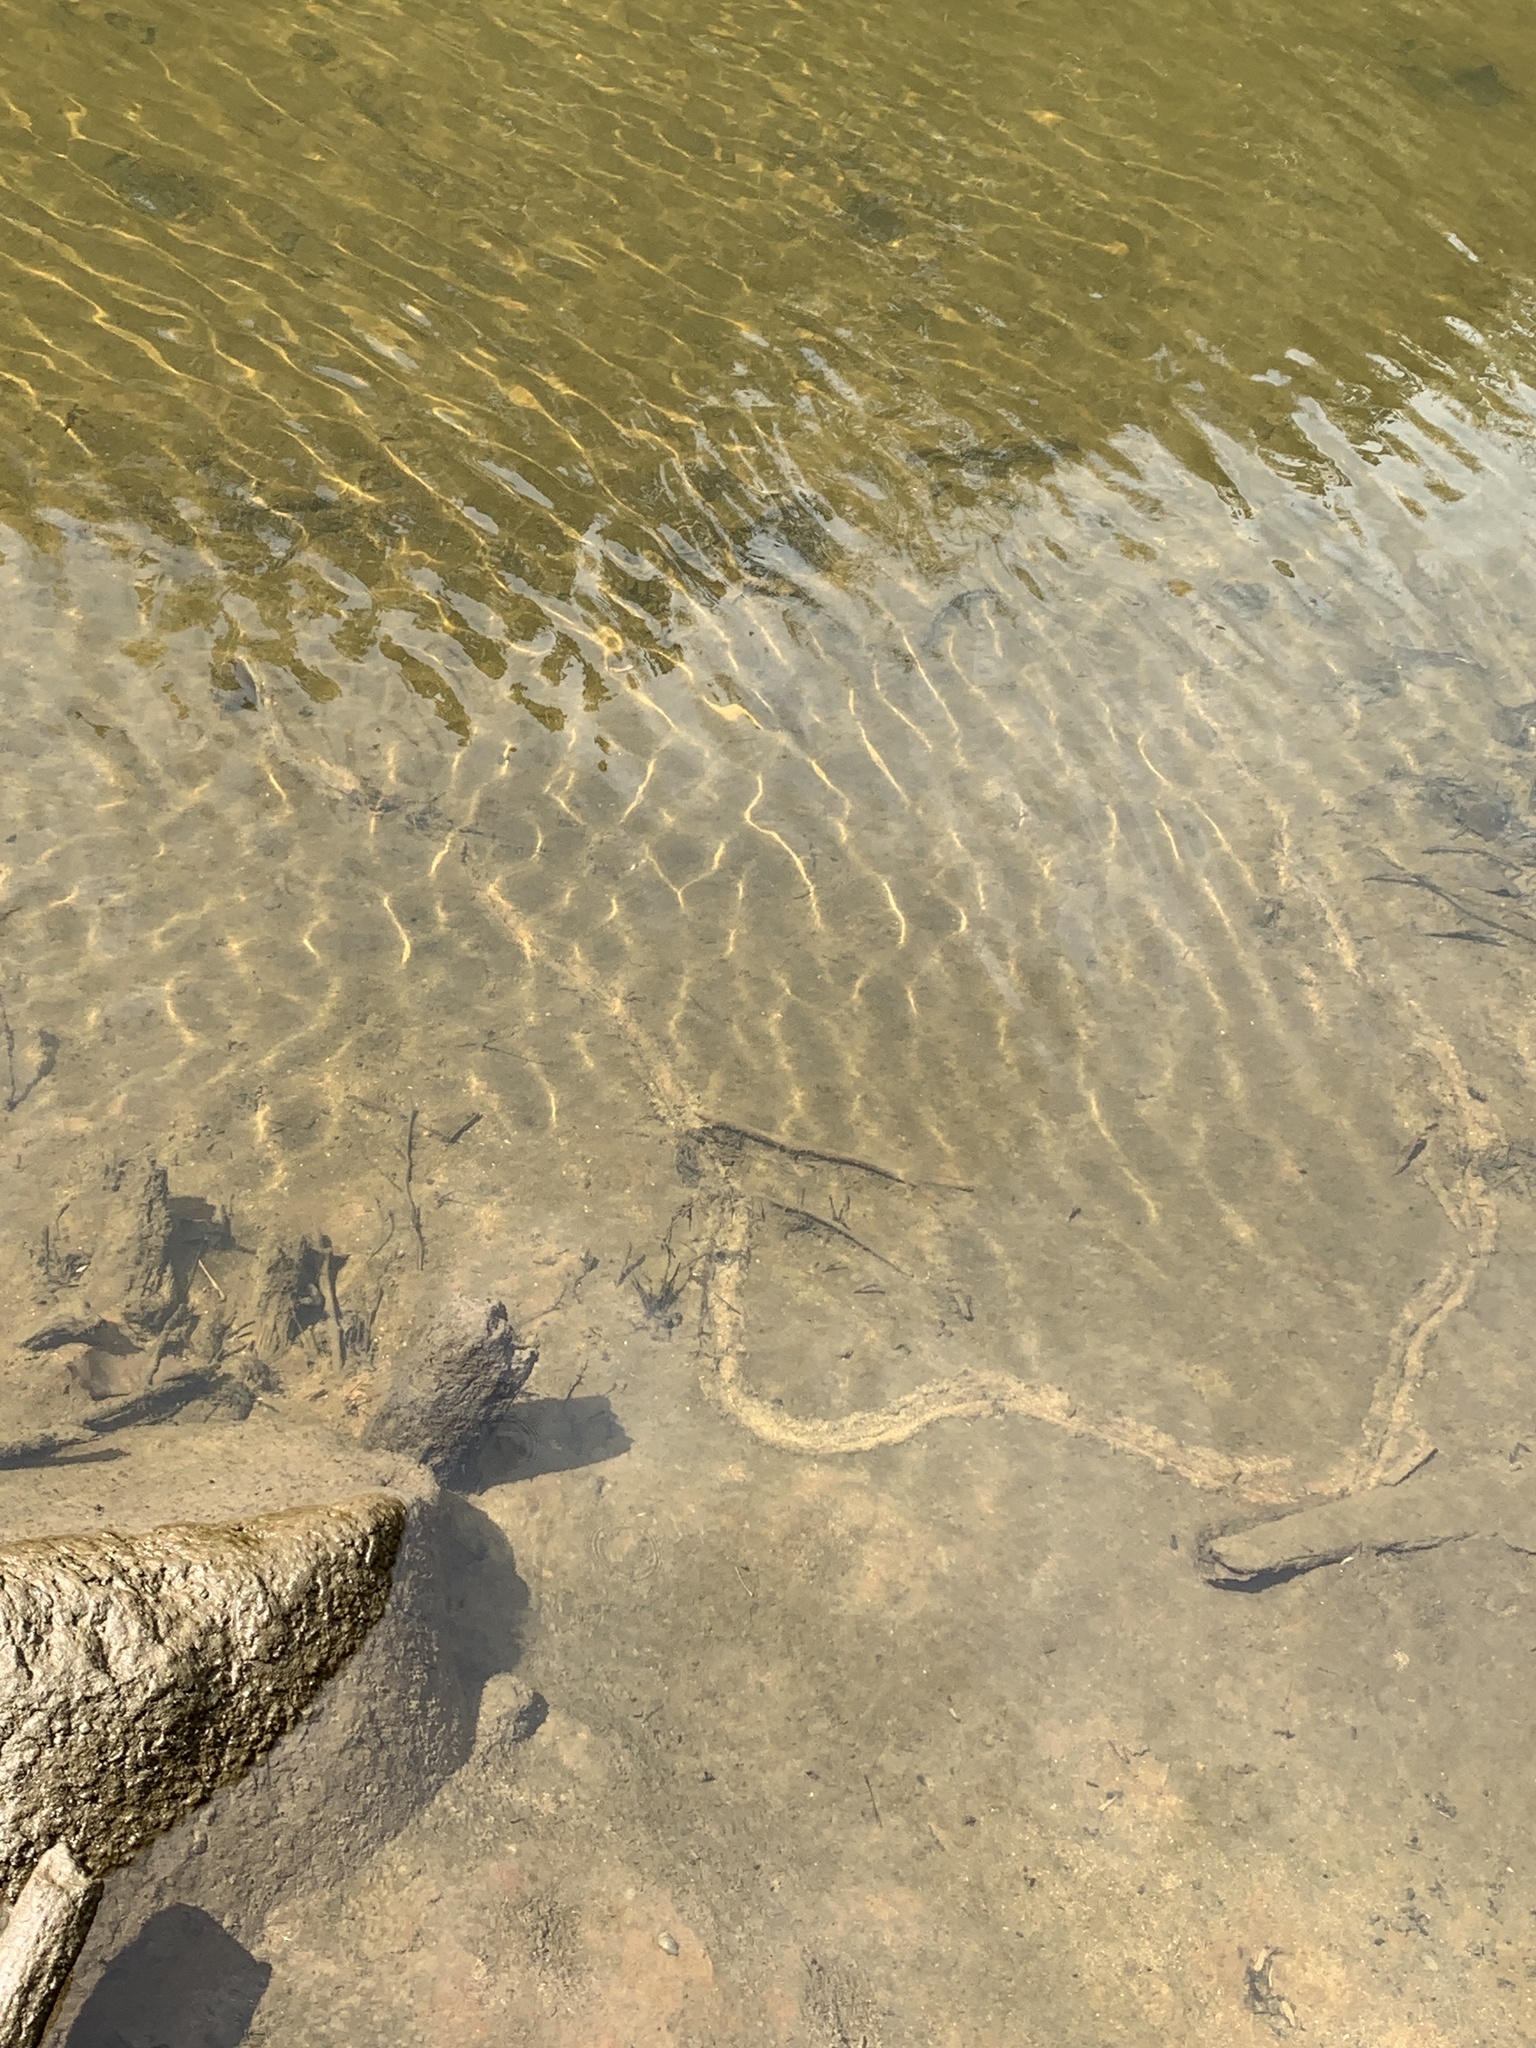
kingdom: Animalia
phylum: Mollusca
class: Bivalvia
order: Unionida
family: Unionidae
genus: Lampsilis
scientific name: Lampsilis radiata
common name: Eastern lampmussel
